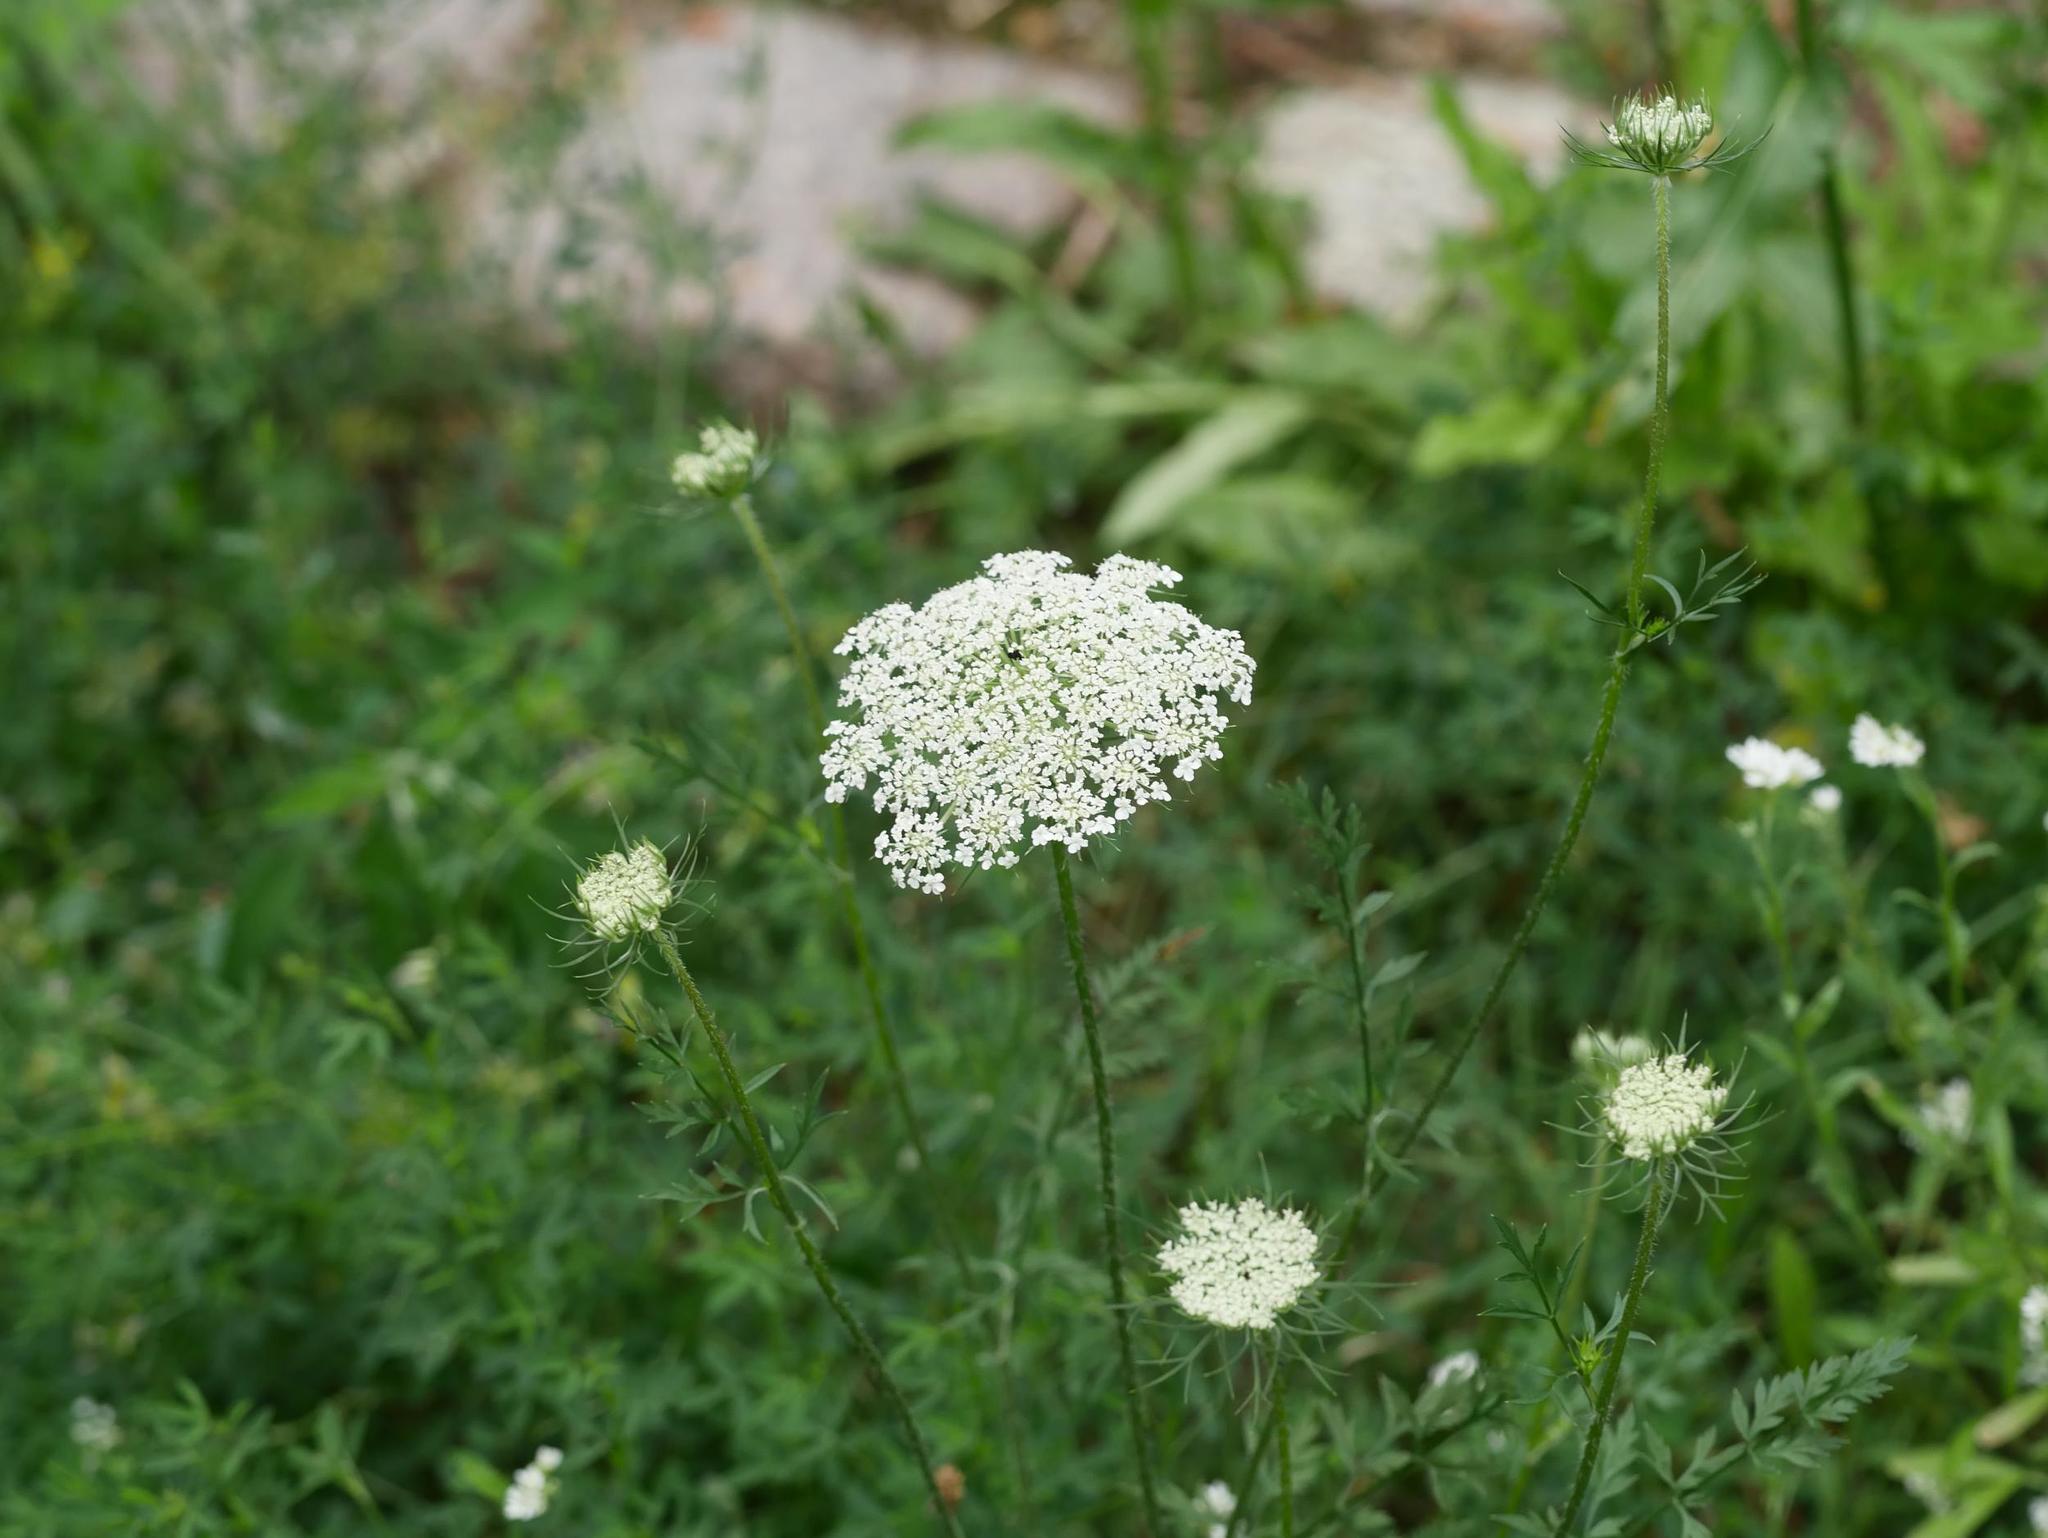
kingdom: Plantae
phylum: Tracheophyta
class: Magnoliopsida
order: Apiales
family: Apiaceae
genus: Daucus
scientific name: Daucus carota
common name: Wild carrot
